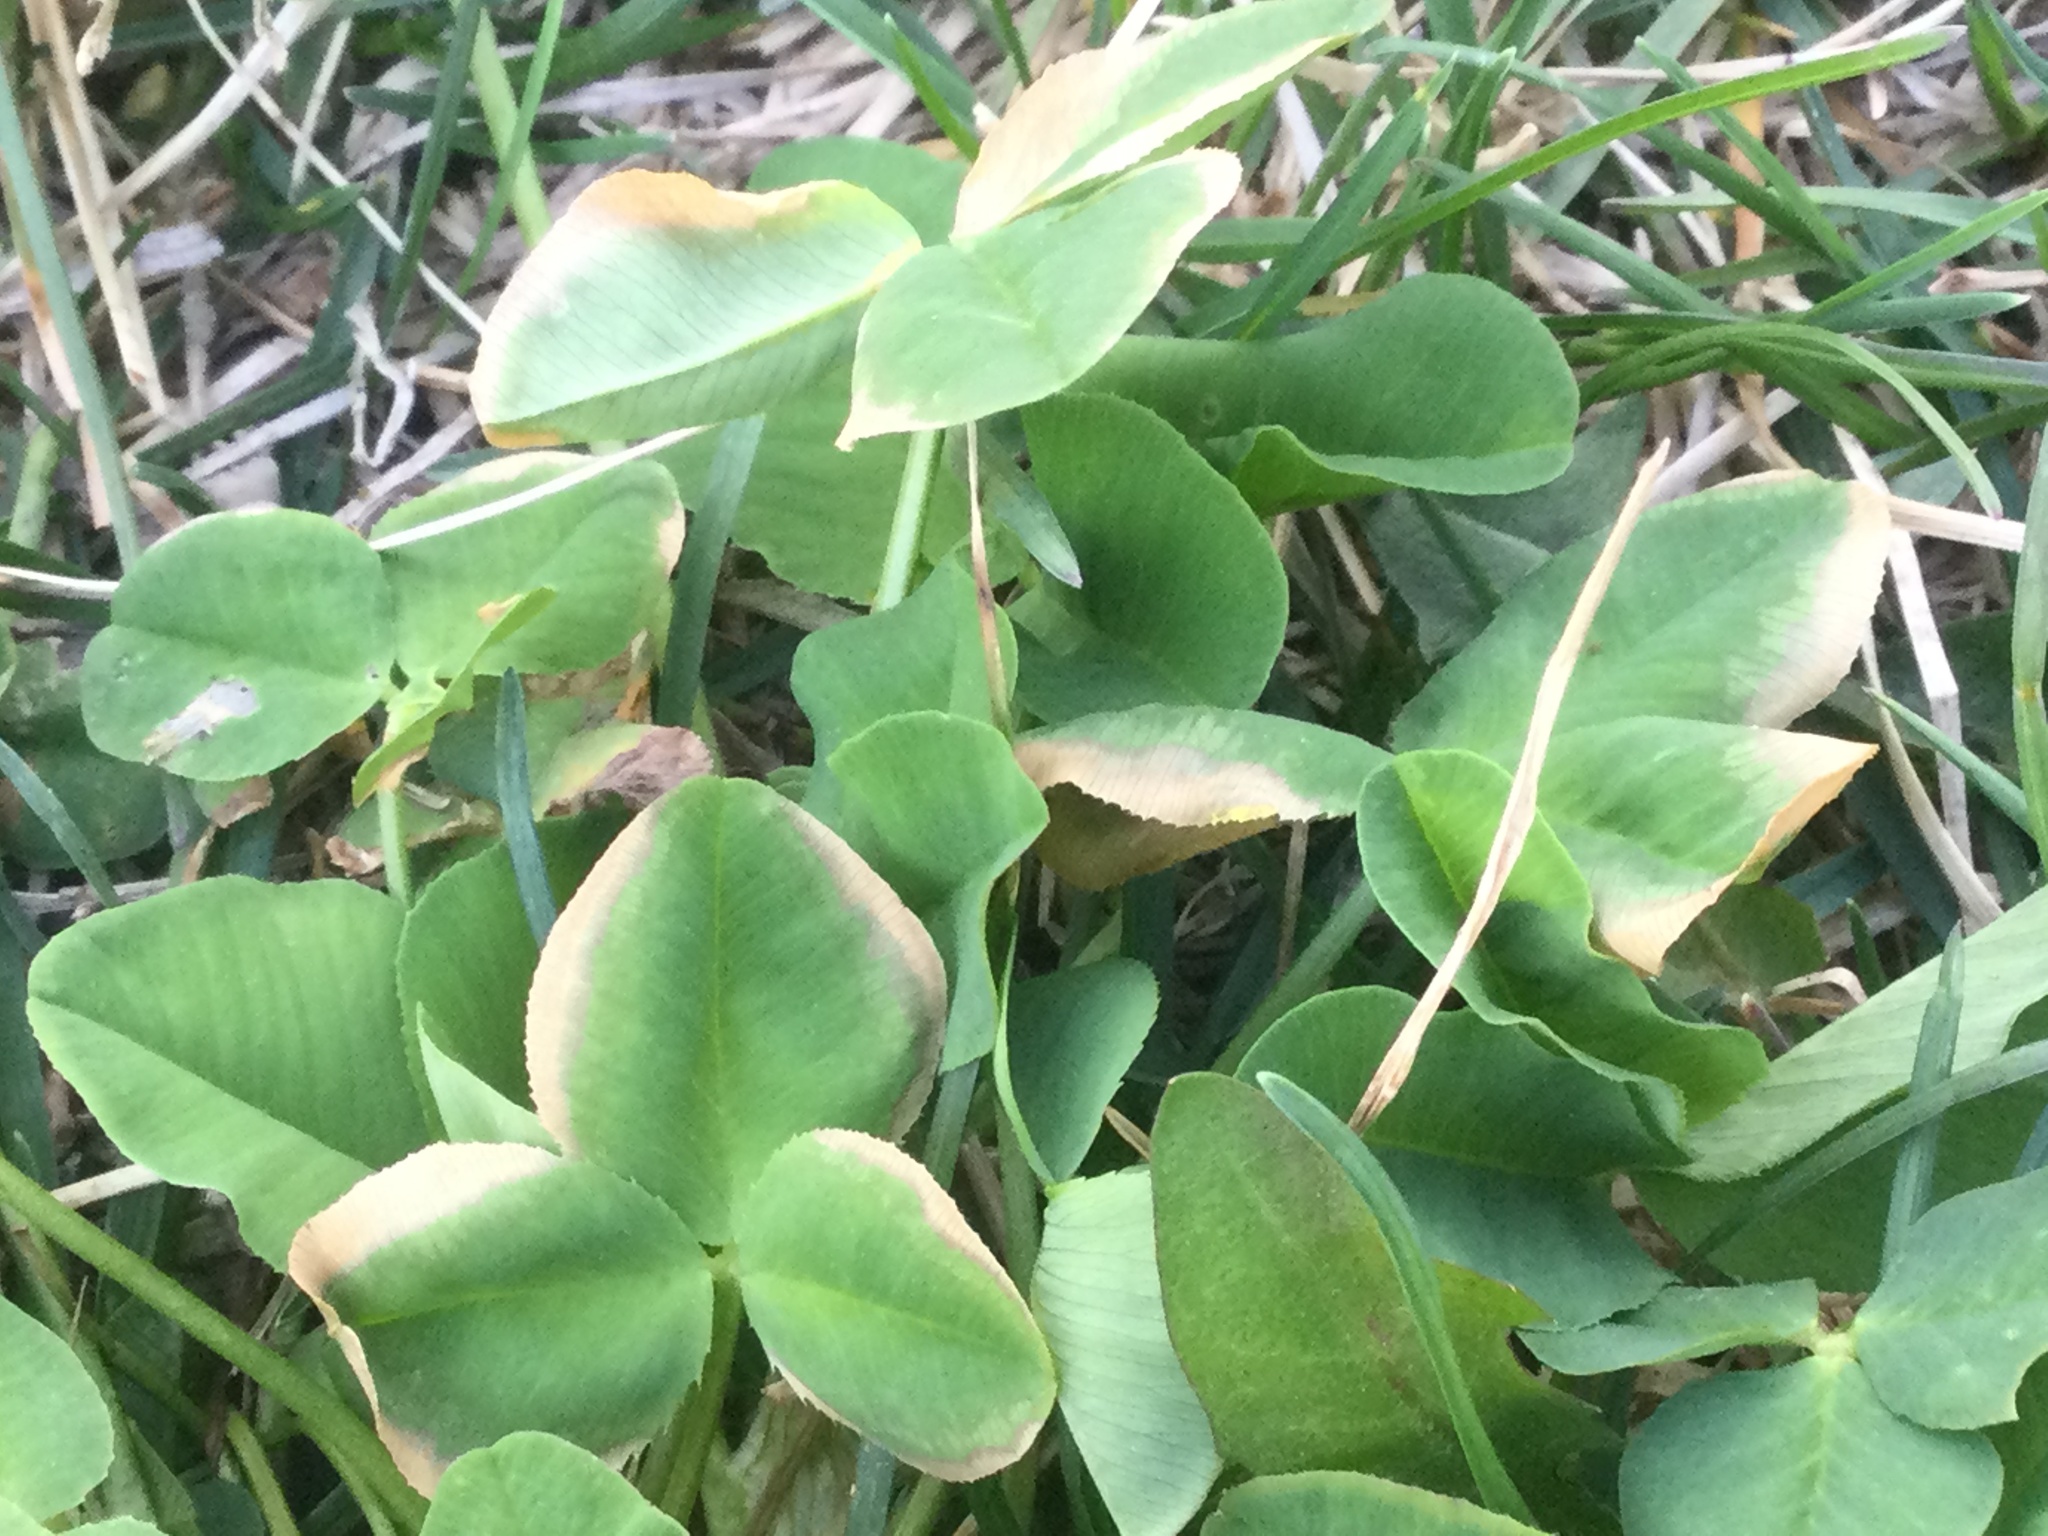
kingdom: Plantae
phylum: Tracheophyta
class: Magnoliopsida
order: Fabales
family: Fabaceae
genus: Trifolium
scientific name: Trifolium incarnatum
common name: Crimson clover
